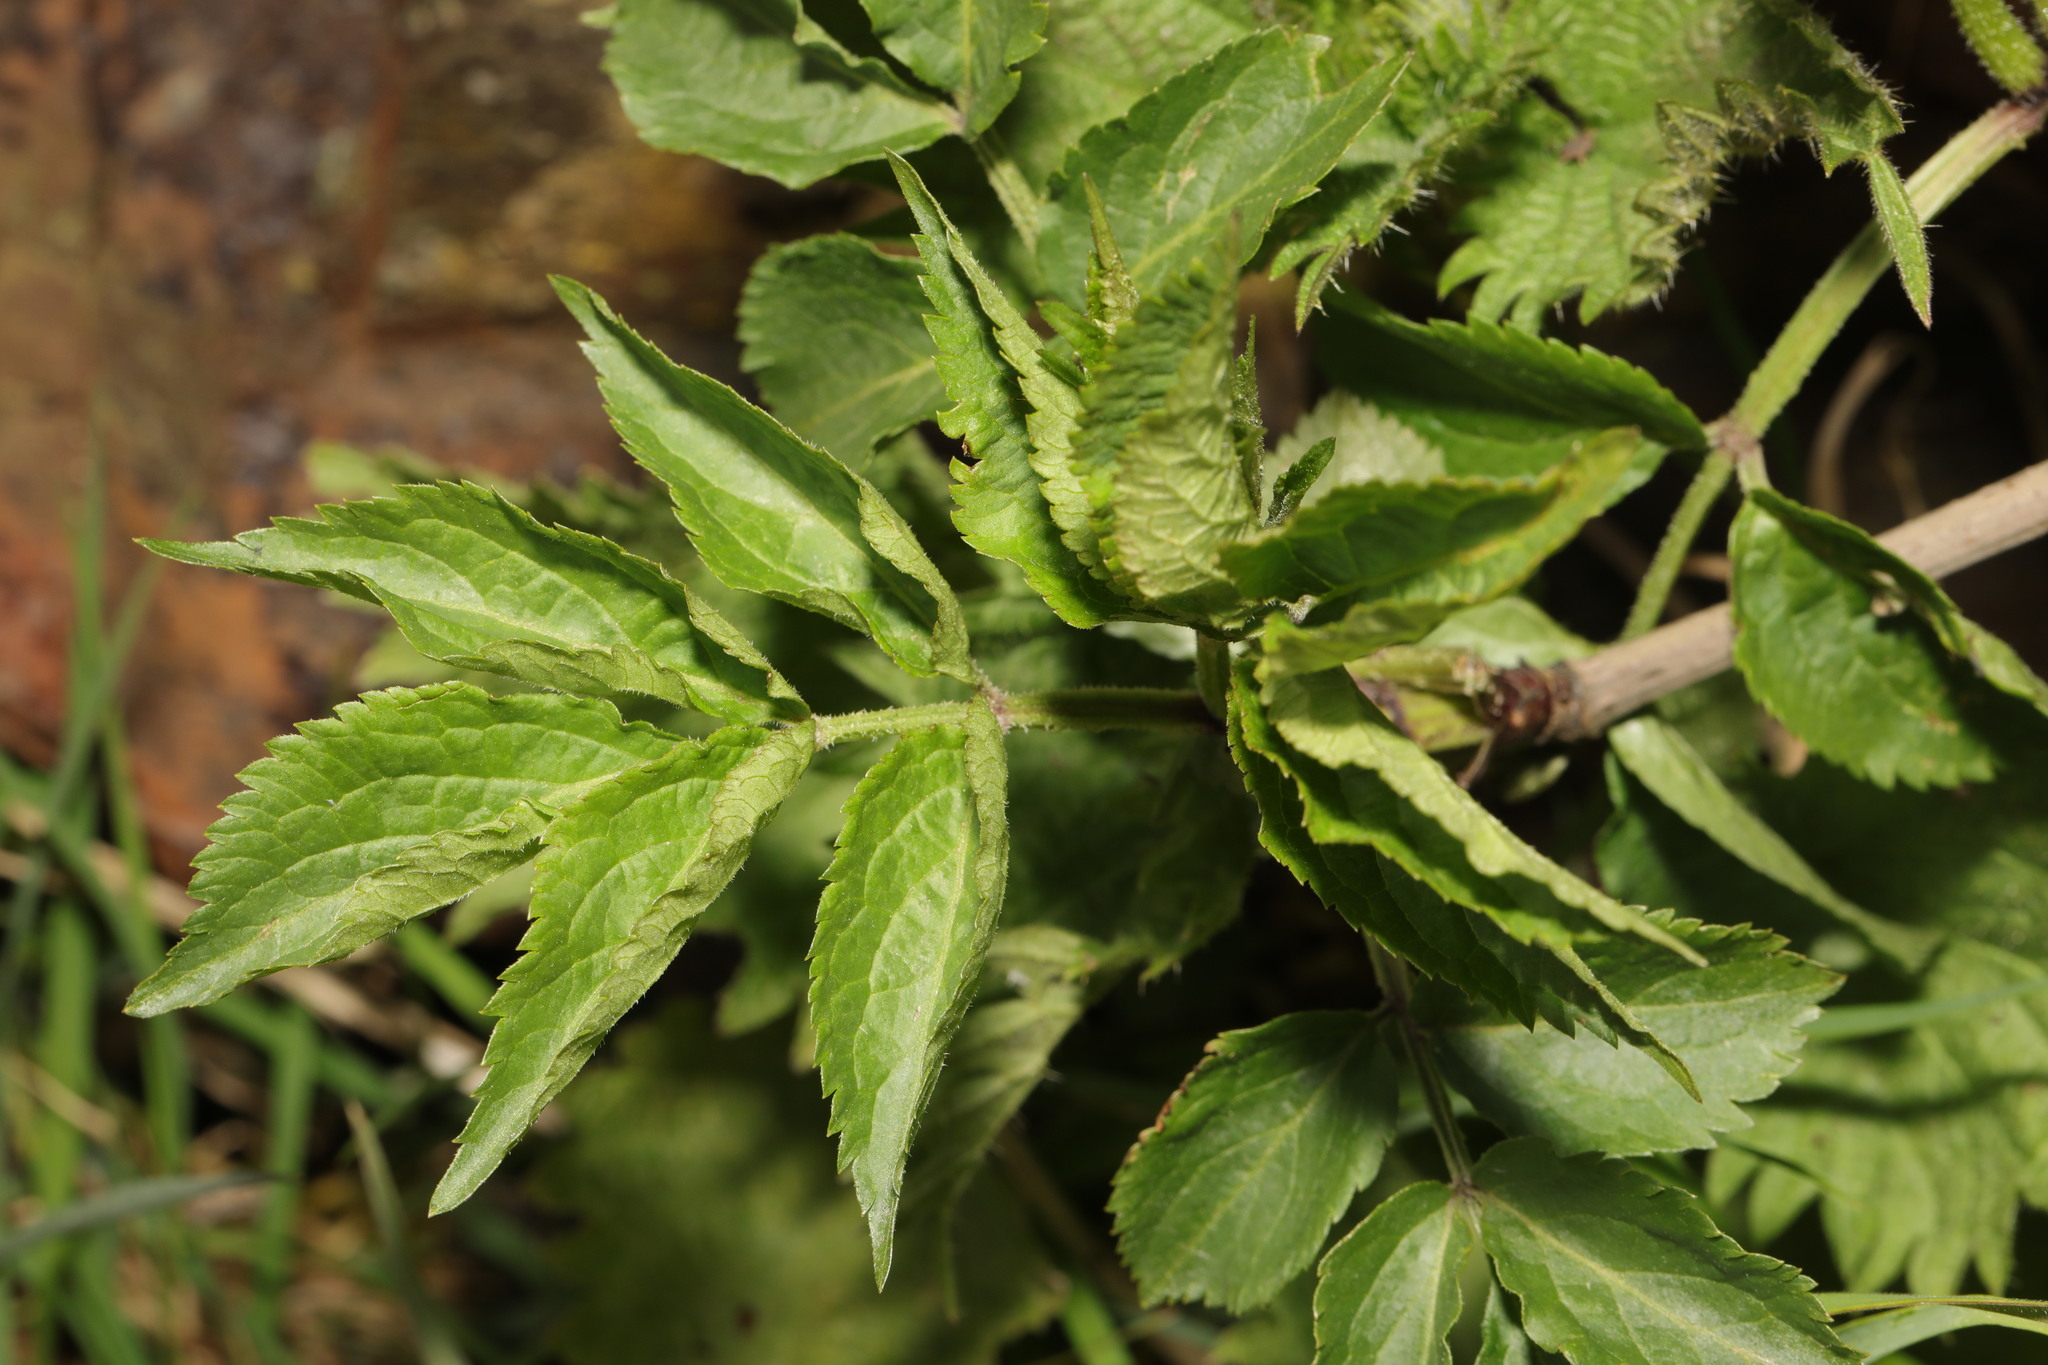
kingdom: Plantae
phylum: Tracheophyta
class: Magnoliopsida
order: Dipsacales
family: Viburnaceae
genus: Sambucus
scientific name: Sambucus nigra
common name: Elder
